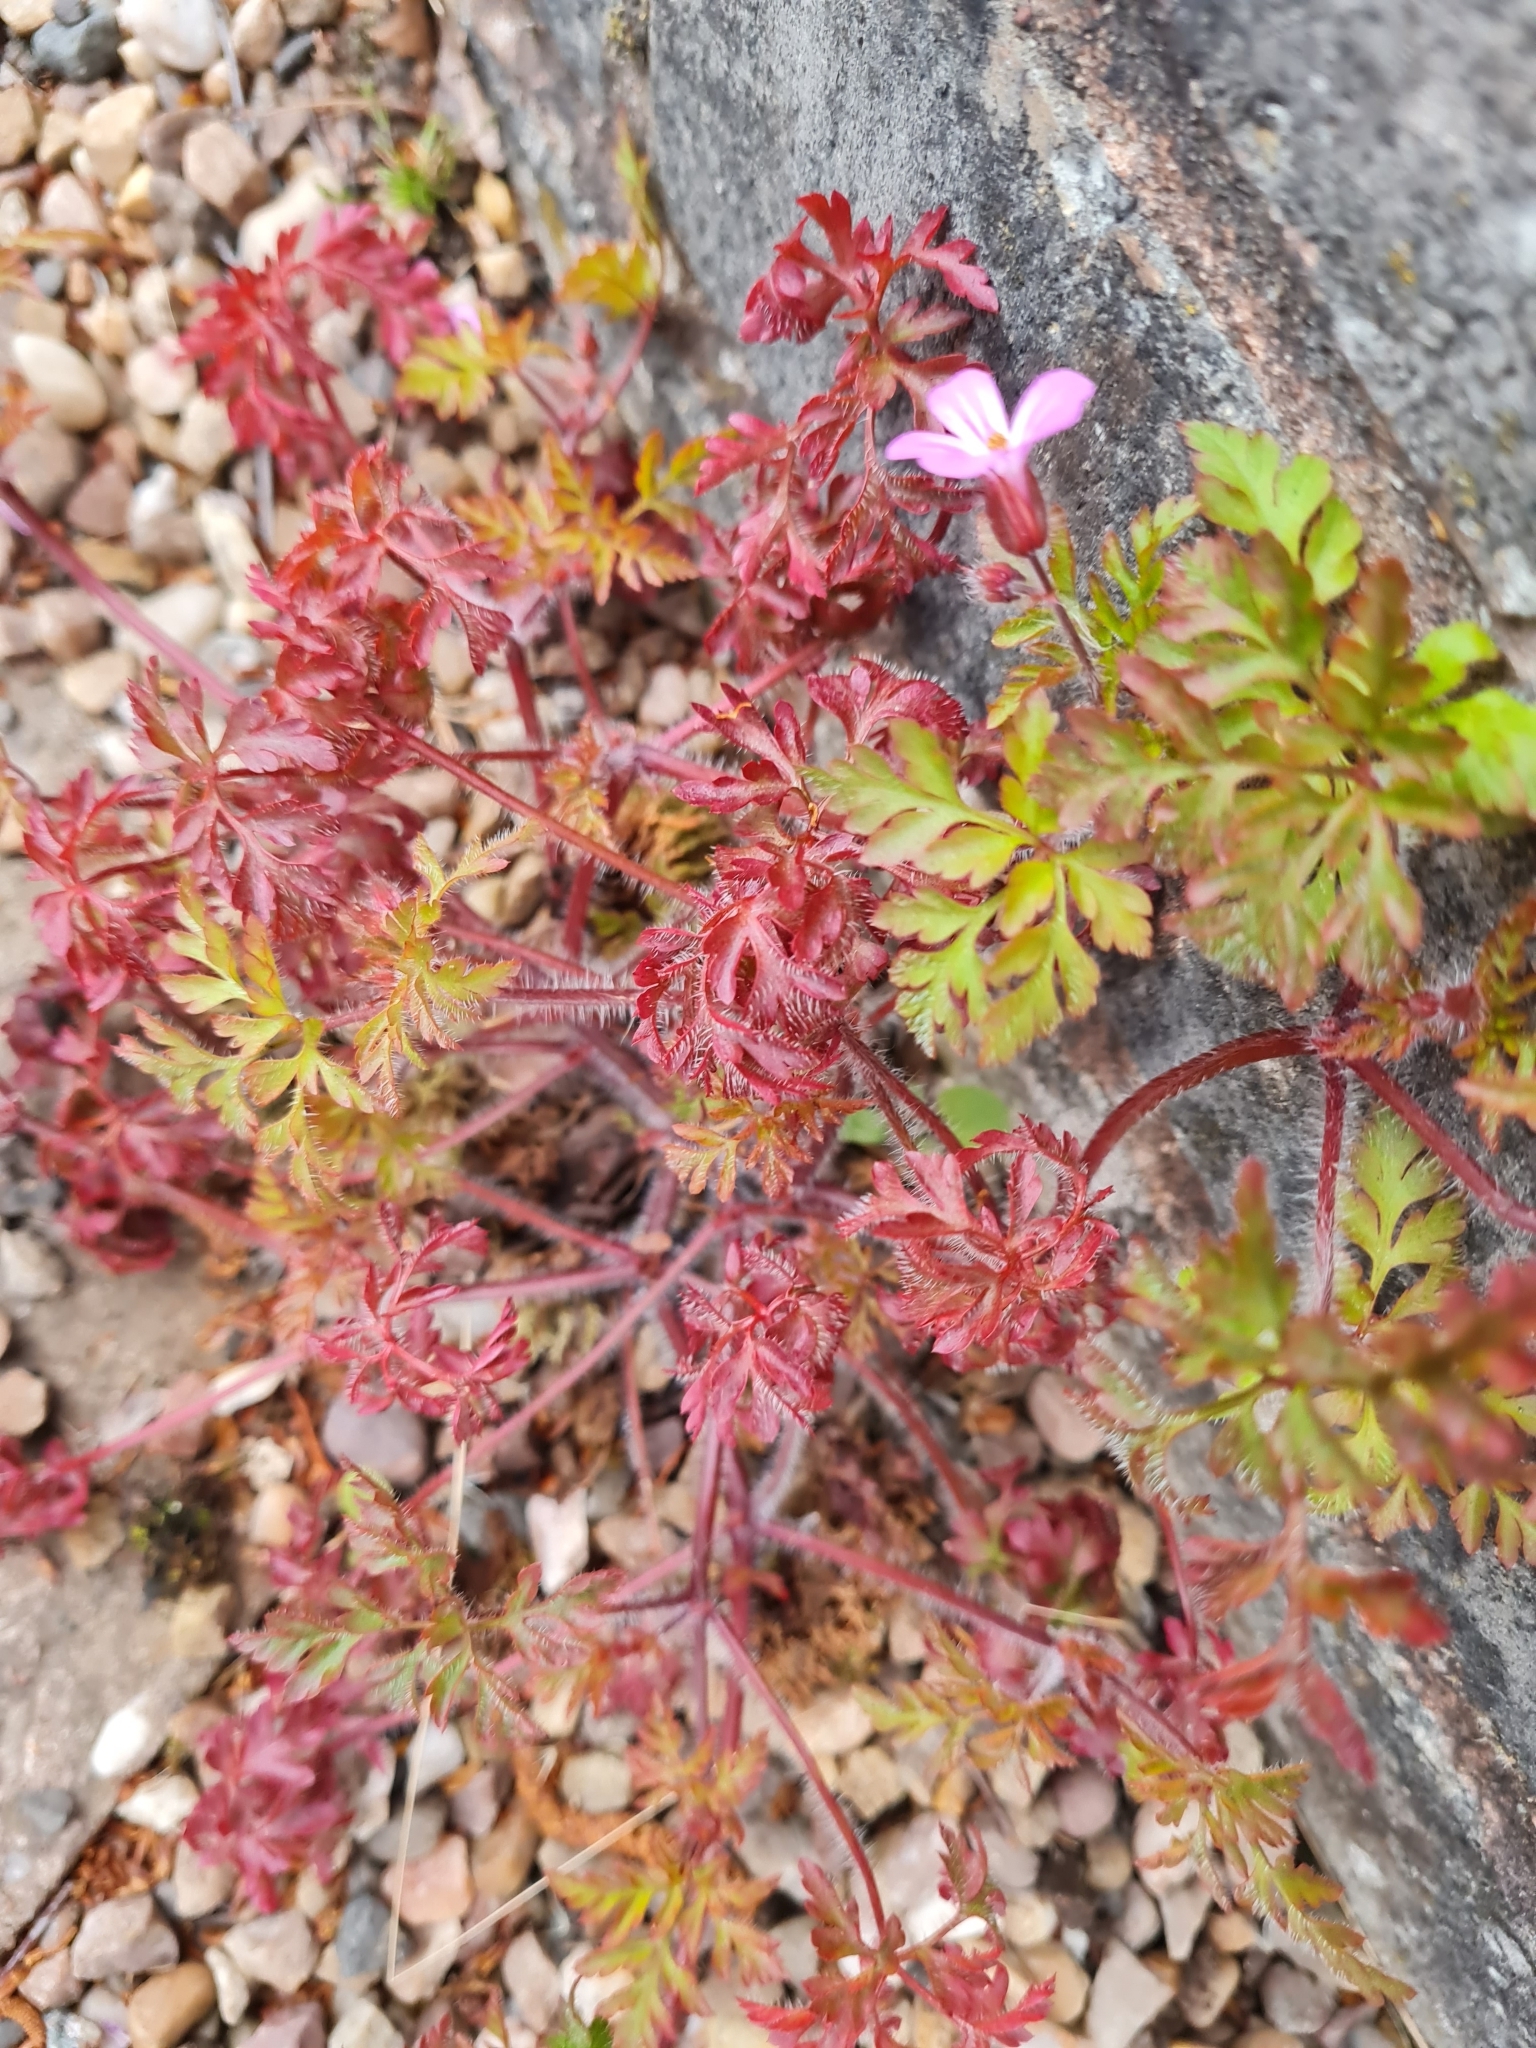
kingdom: Plantae
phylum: Tracheophyta
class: Magnoliopsida
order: Geraniales
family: Geraniaceae
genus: Geranium
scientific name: Geranium robertianum
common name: Herb-robert
